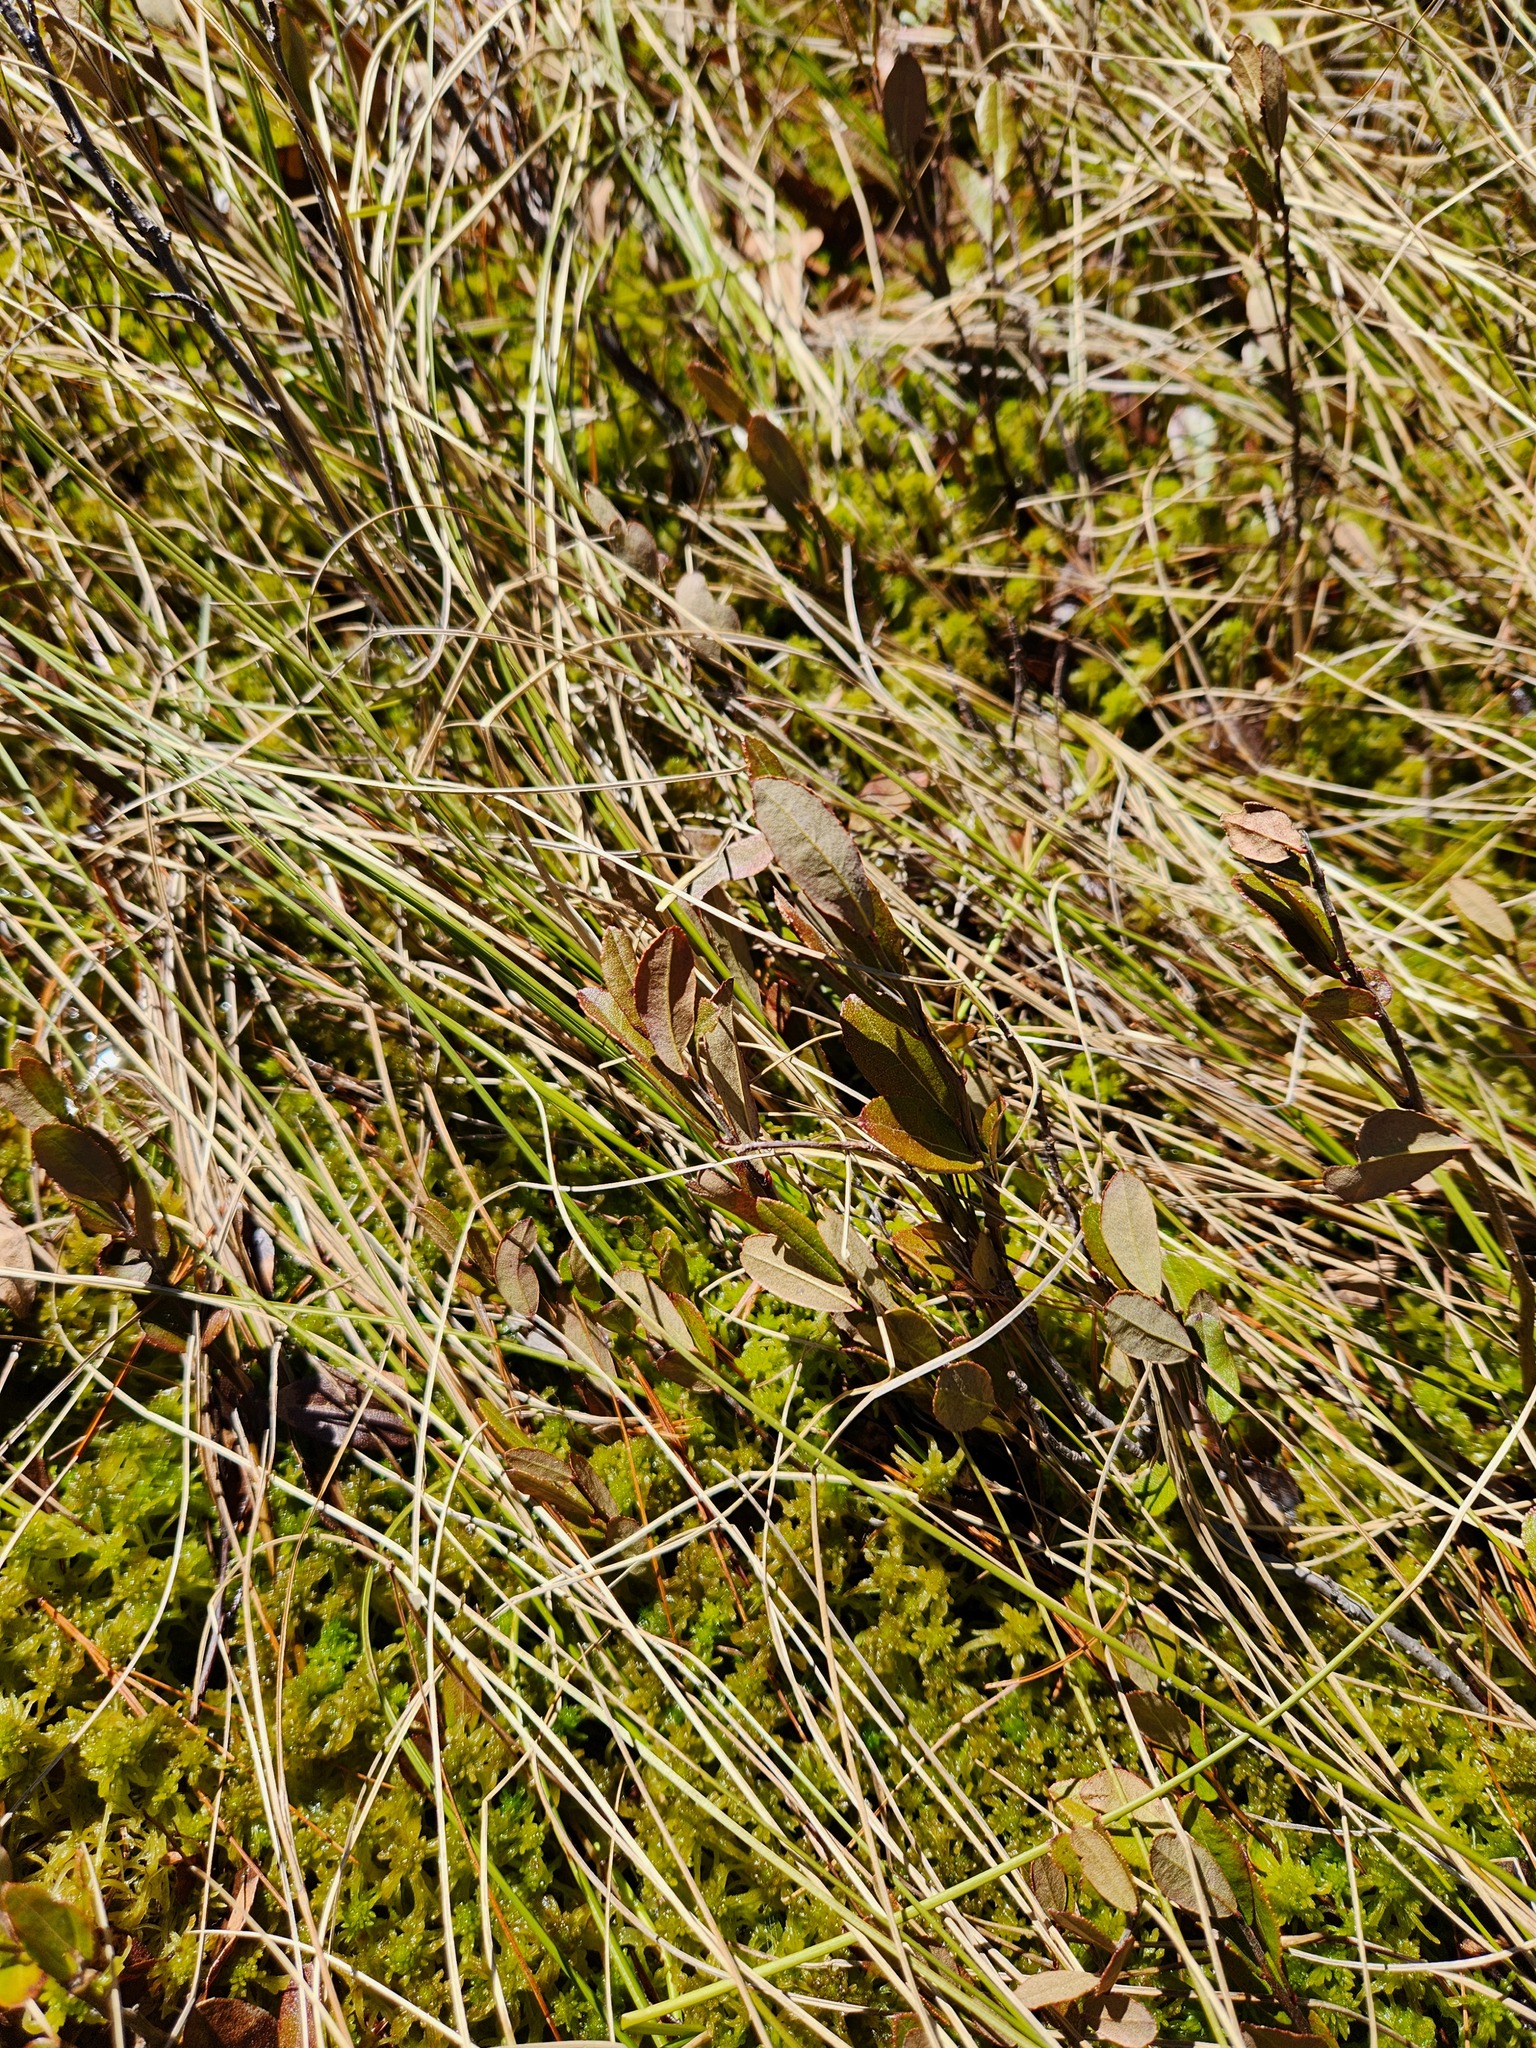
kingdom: Plantae
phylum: Tracheophyta
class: Magnoliopsida
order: Ericales
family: Ericaceae
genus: Chamaedaphne
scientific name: Chamaedaphne calyculata
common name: Leatherleaf
